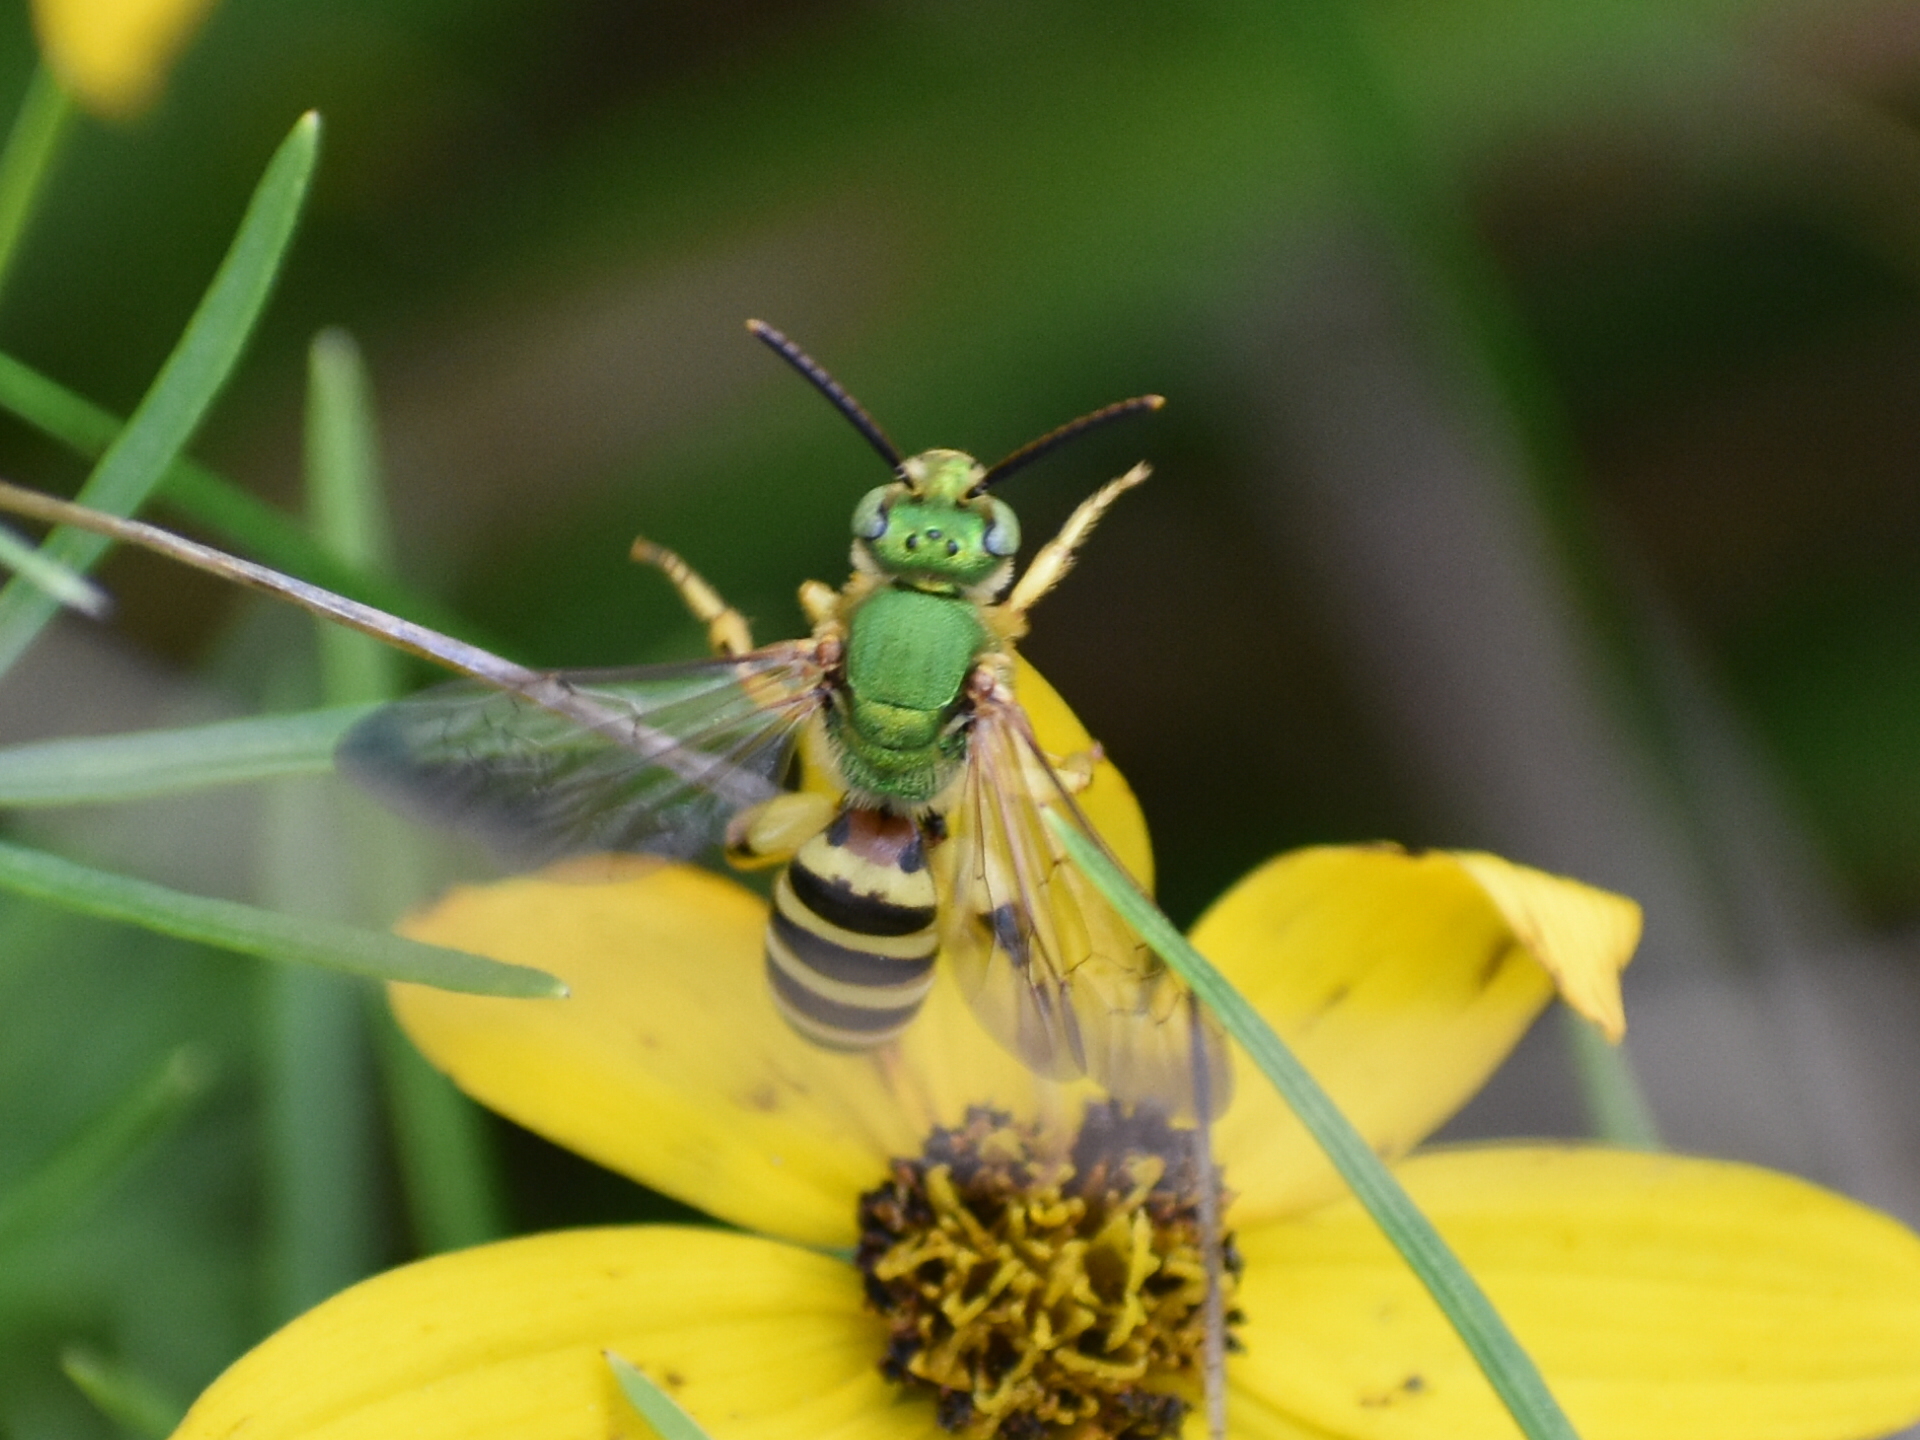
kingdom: Animalia
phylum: Arthropoda
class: Insecta
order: Hymenoptera
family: Halictidae
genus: Agapostemon
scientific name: Agapostemon splendens
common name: Brown-winged striped sweat bee
